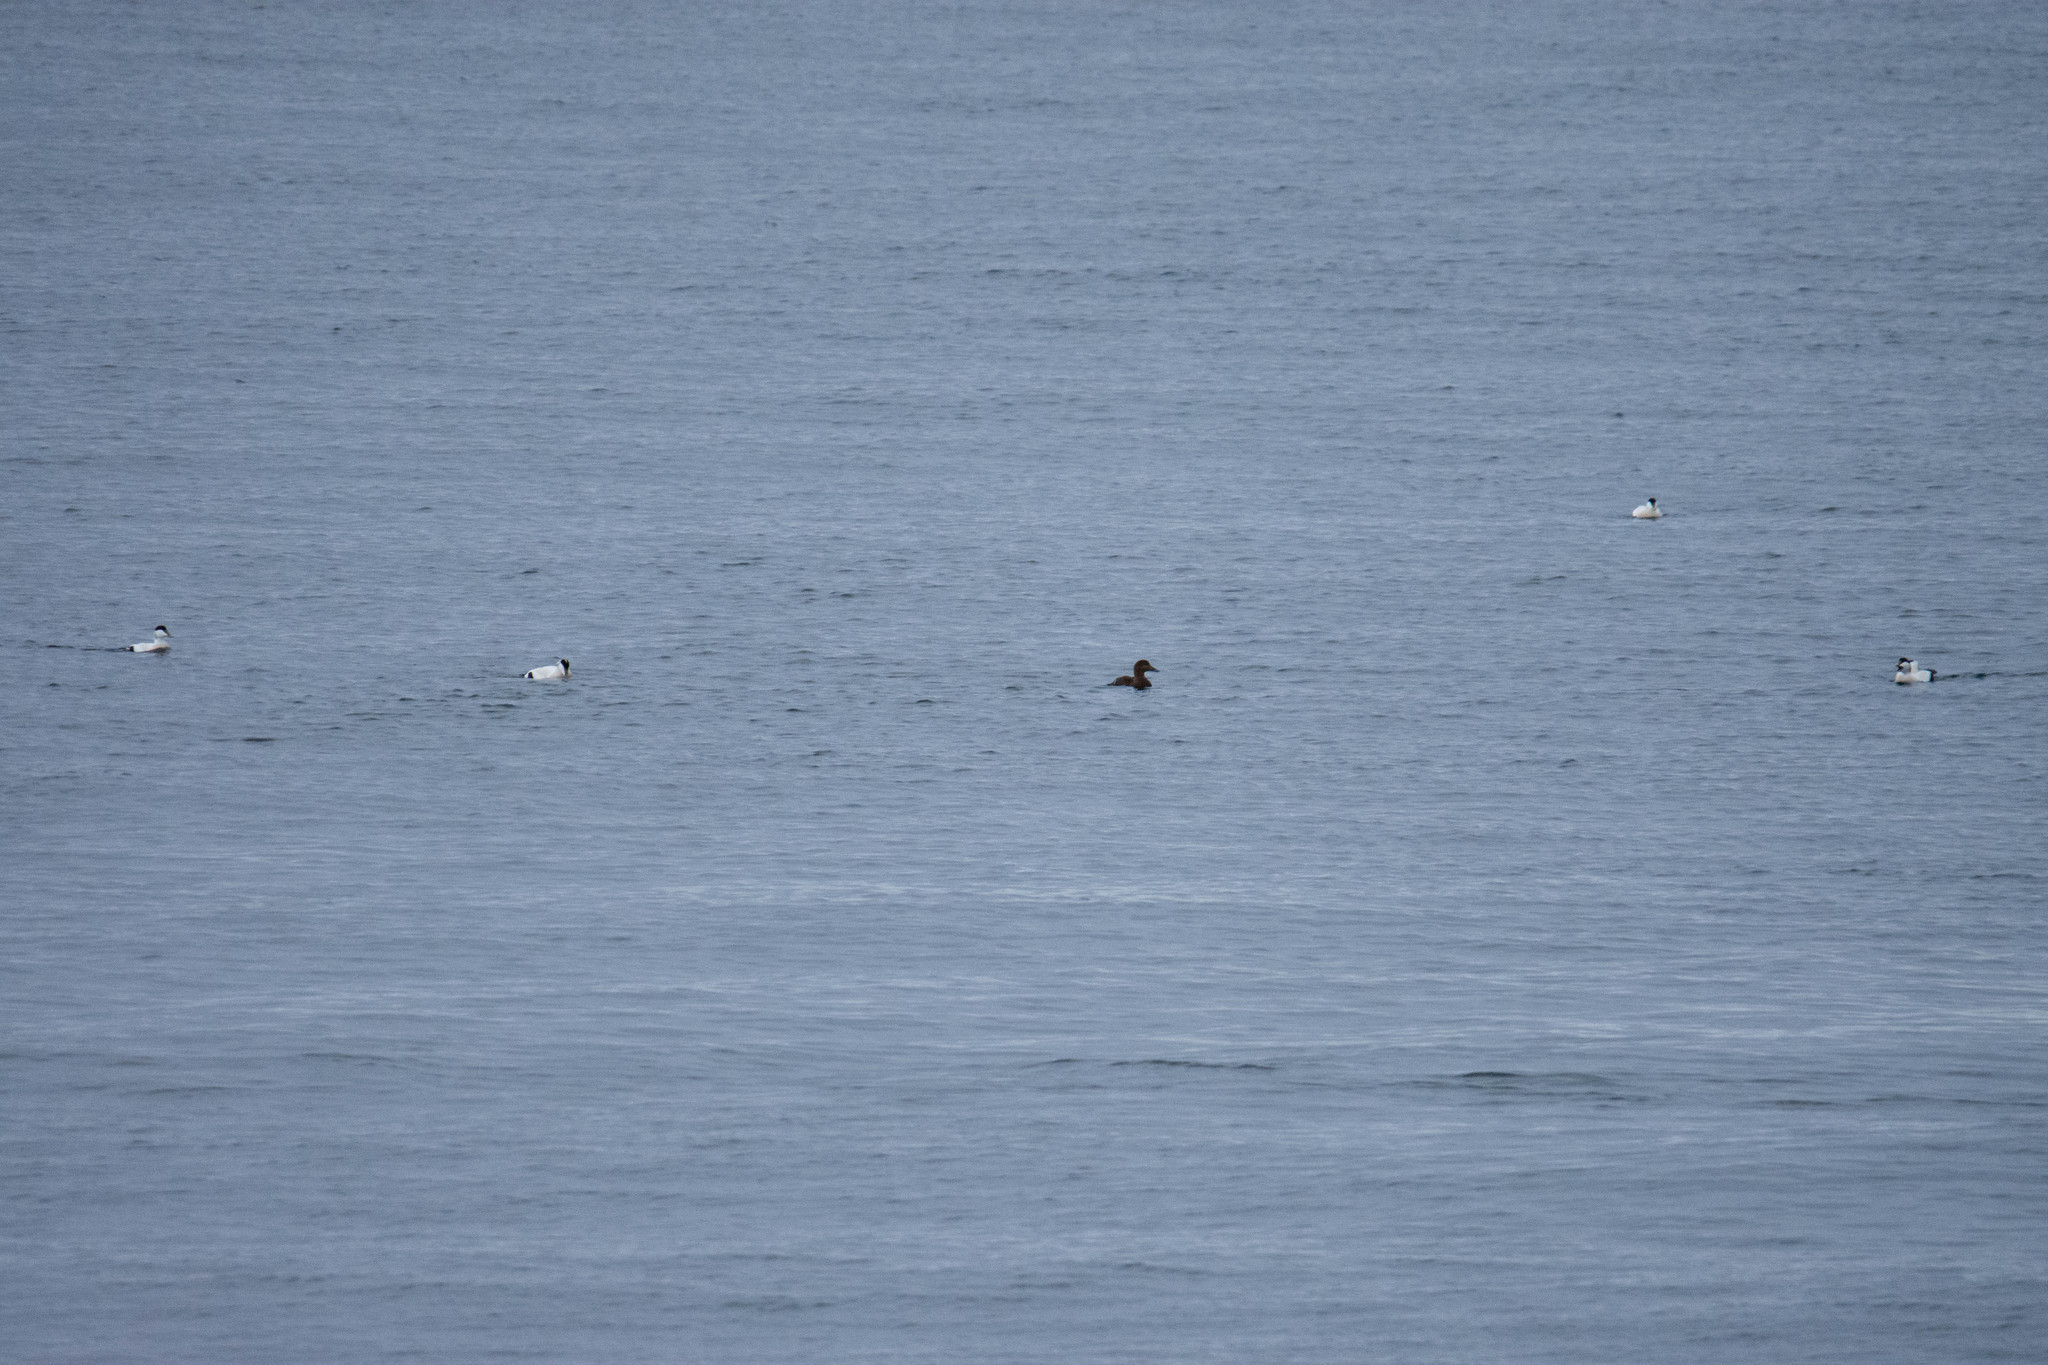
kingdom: Animalia
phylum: Chordata
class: Aves
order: Anseriformes
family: Anatidae
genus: Somateria
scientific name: Somateria mollissima
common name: Common eider
